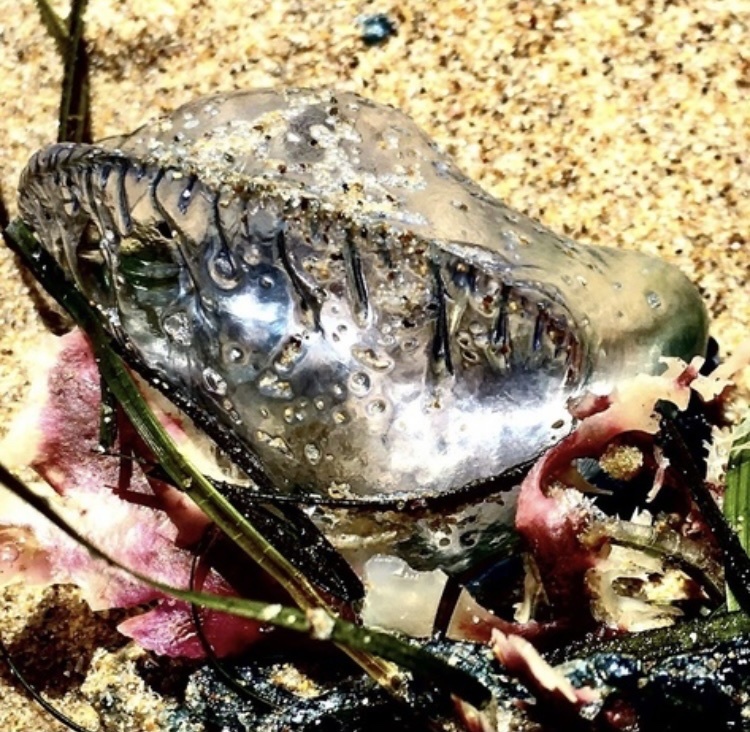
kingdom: Animalia
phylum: Cnidaria
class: Hydrozoa
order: Siphonophorae
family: Physaliidae
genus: Physalia
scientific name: Physalia physalis
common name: Portuguese man-of-war
